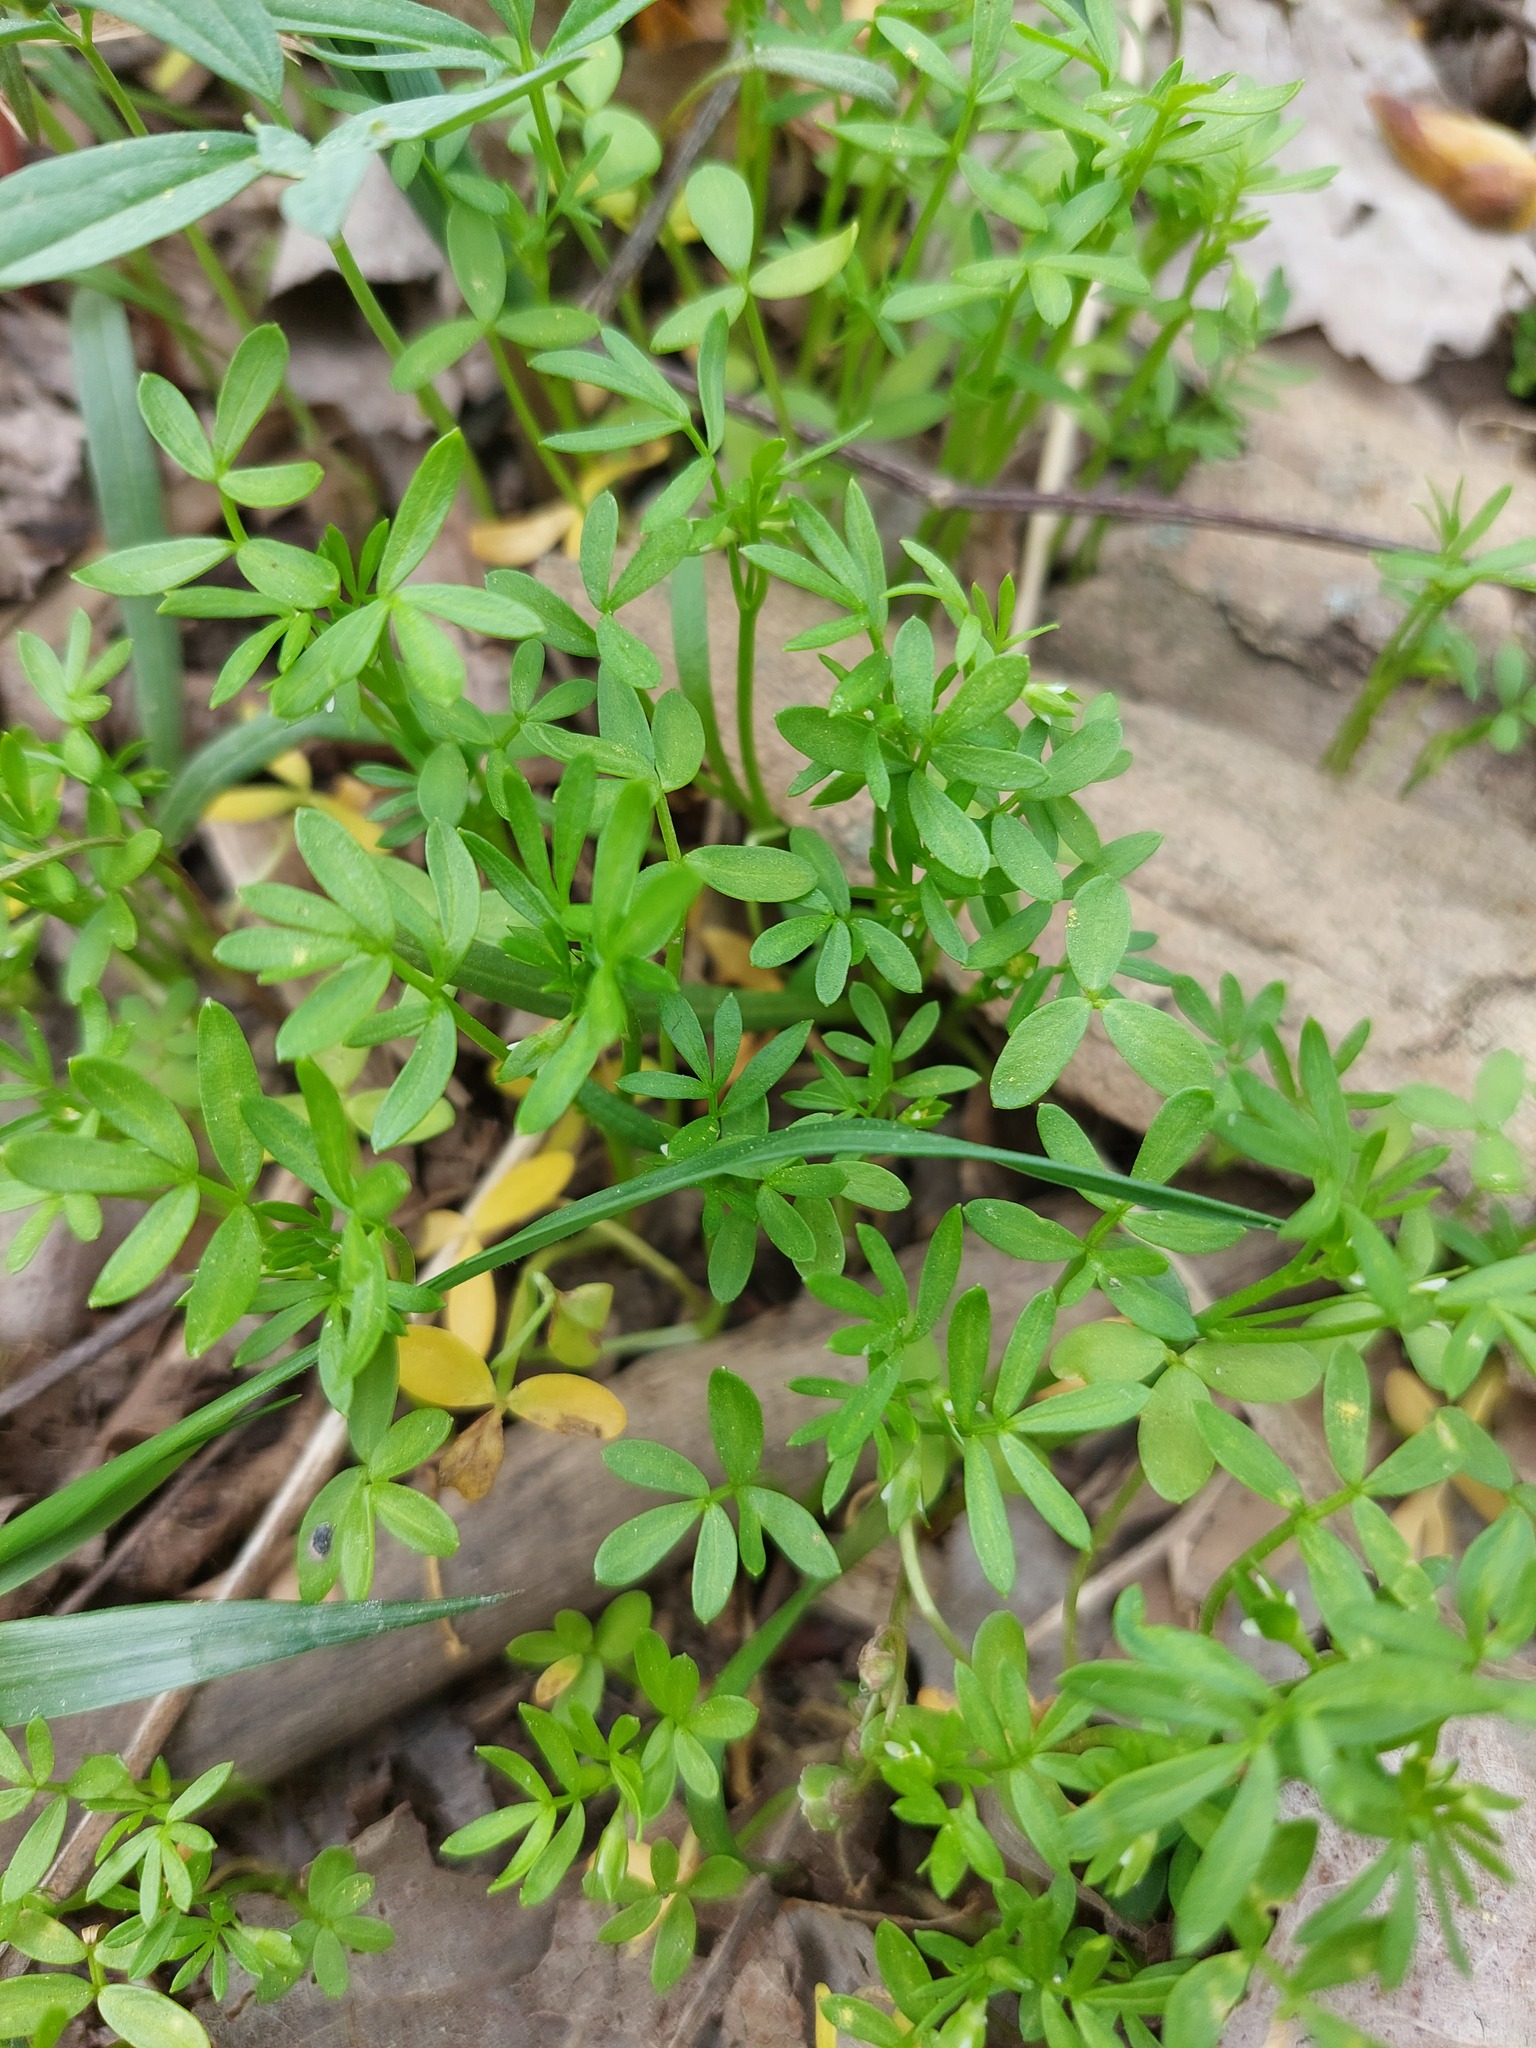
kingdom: Plantae
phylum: Tracheophyta
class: Magnoliopsida
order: Brassicales
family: Limnanthaceae
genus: Floerkea
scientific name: Floerkea proserpinacoides
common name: False mermaid
